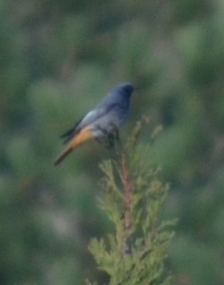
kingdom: Animalia
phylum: Chordata
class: Aves
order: Passeriformes
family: Muscicapidae
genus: Phoenicurus
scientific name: Phoenicurus ochruros
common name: Black redstart
